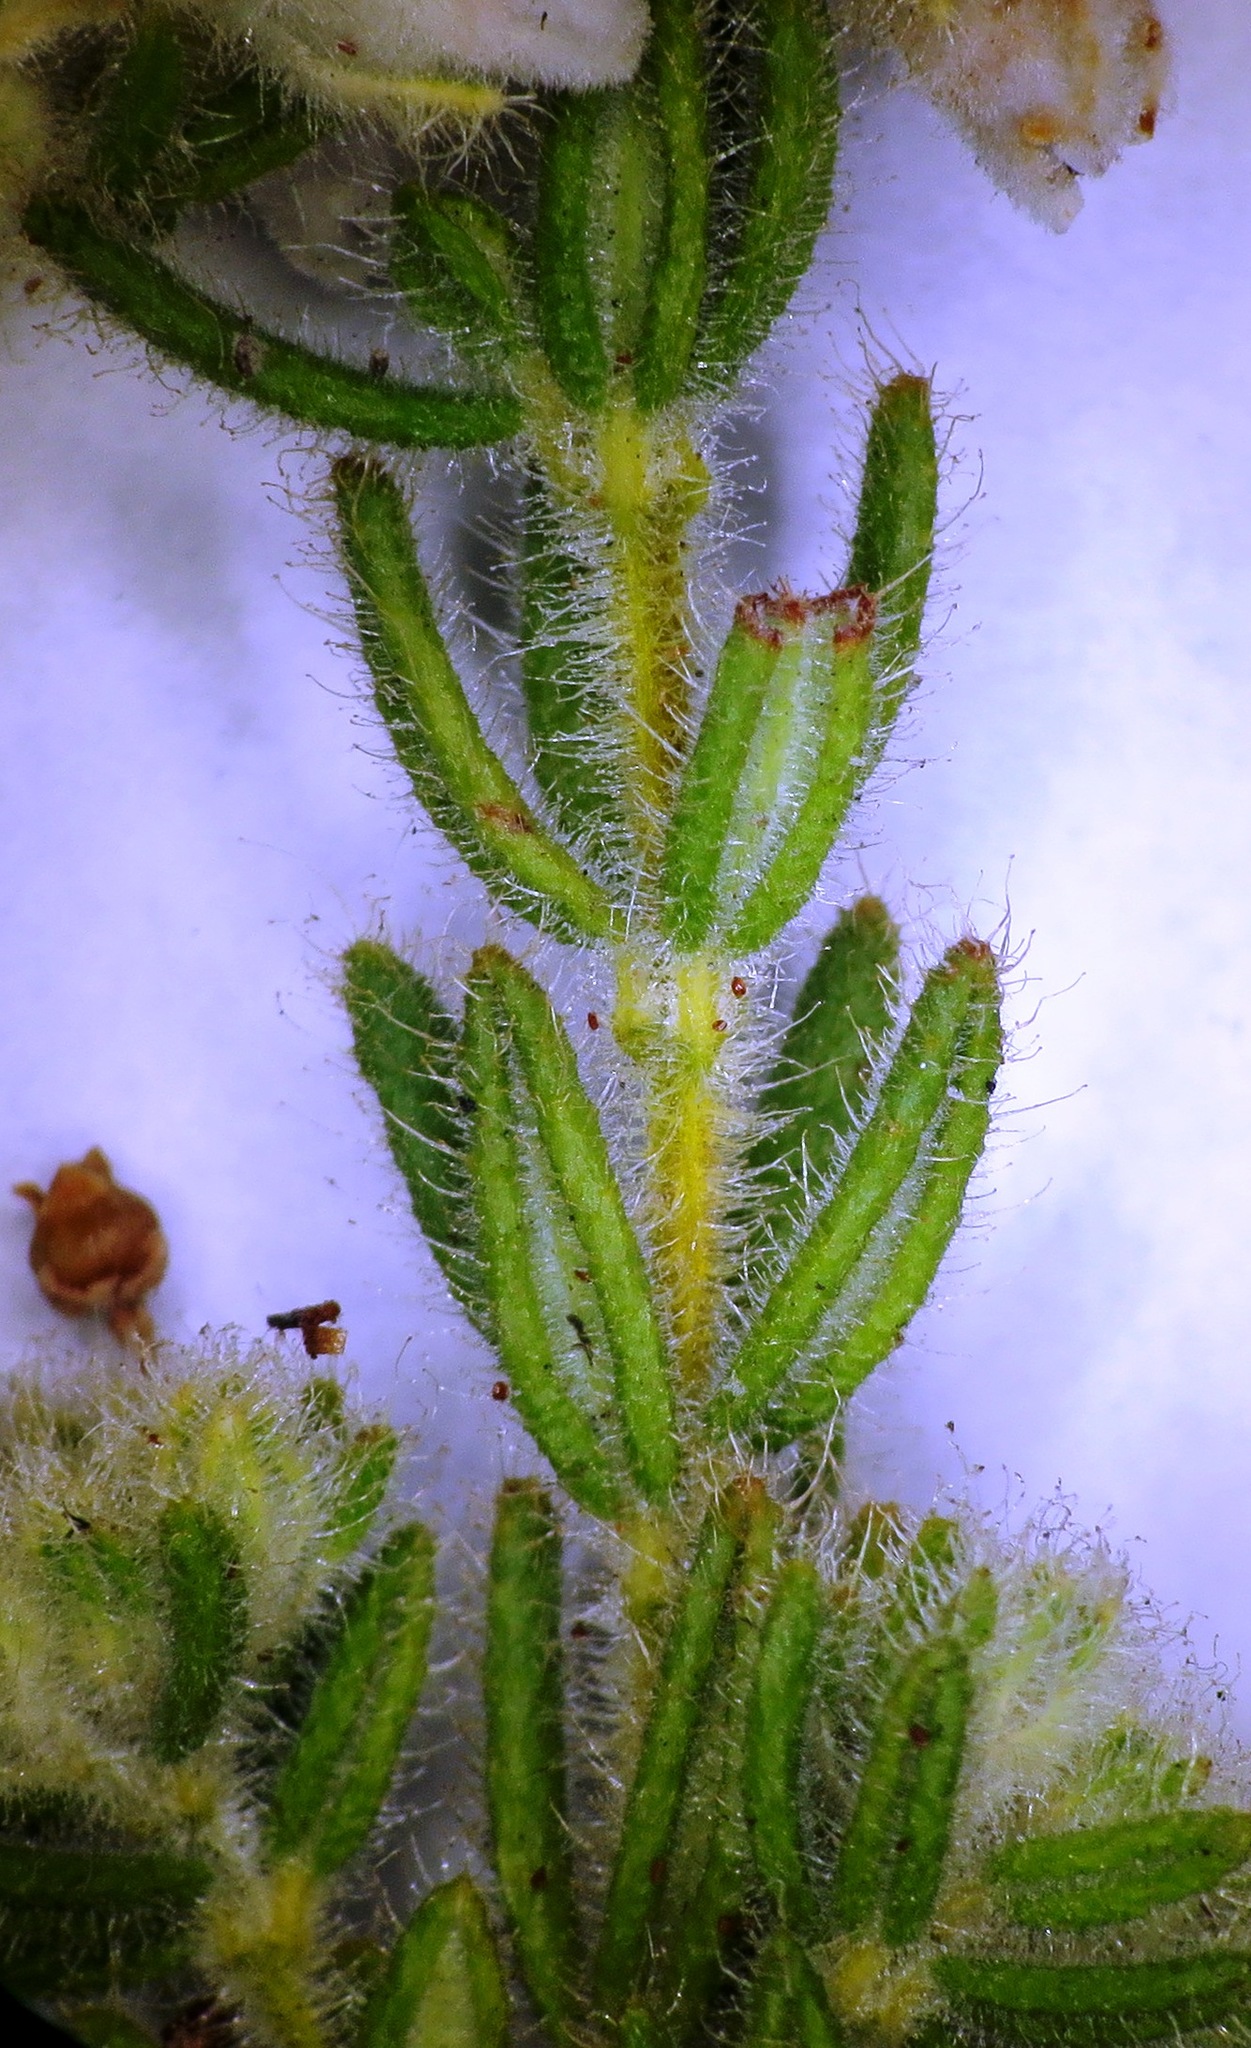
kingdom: Plantae
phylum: Tracheophyta
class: Magnoliopsida
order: Ericales
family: Ericaceae
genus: Erica
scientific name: Erica pannosa
